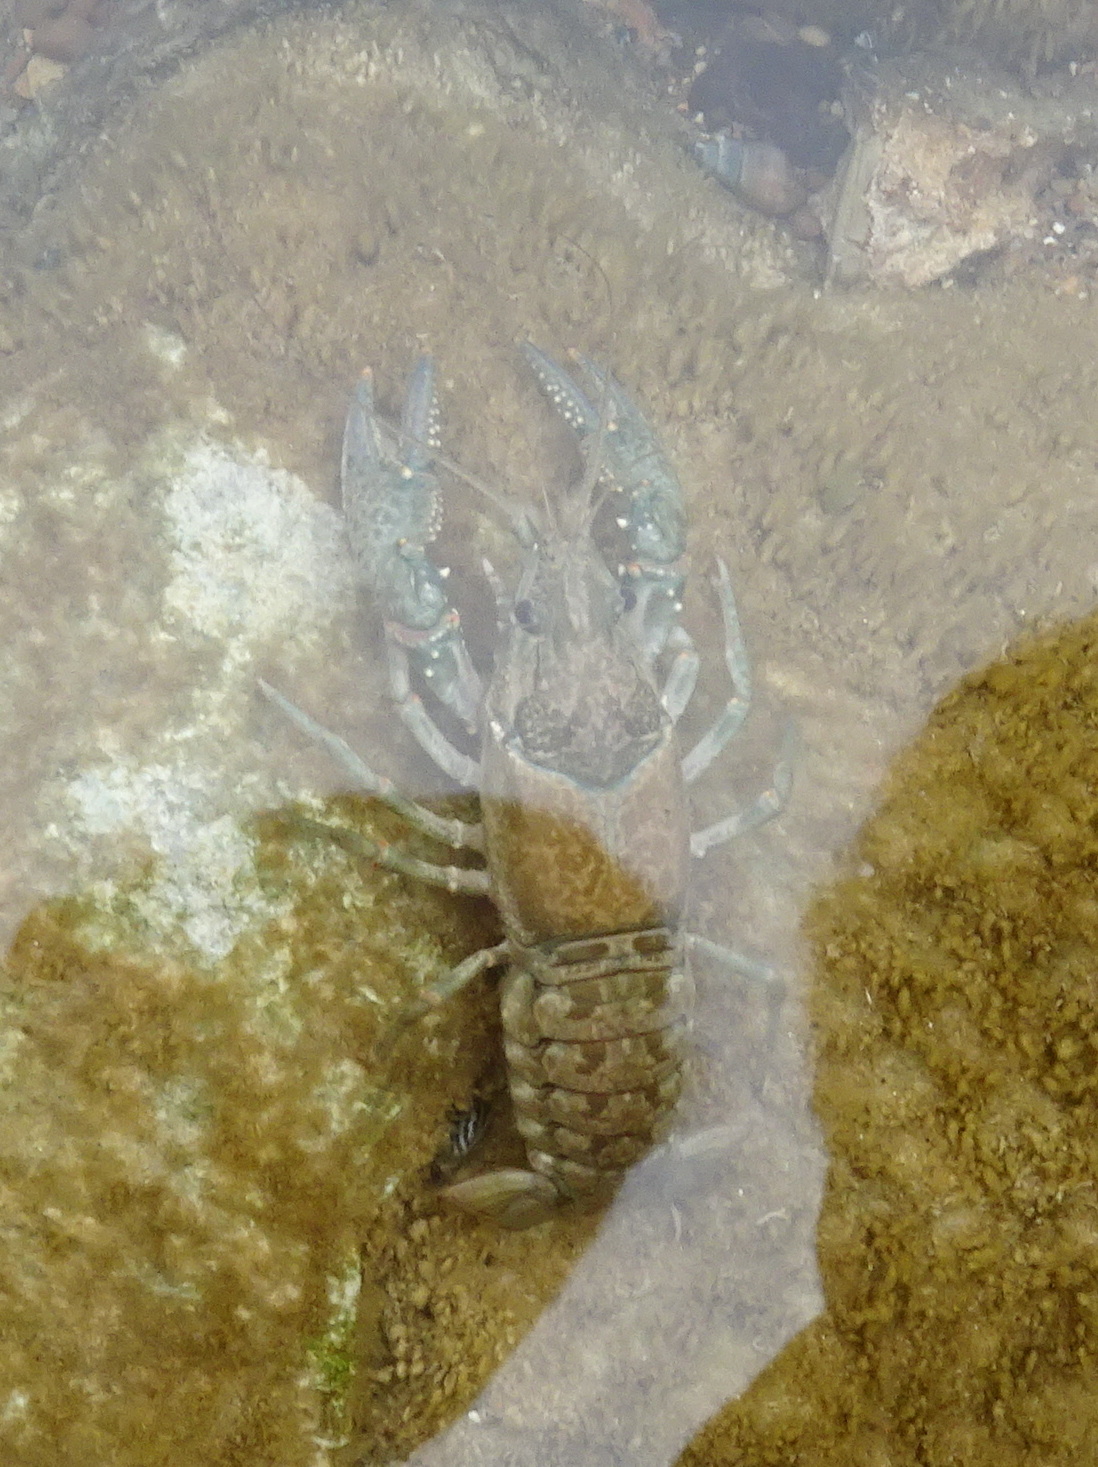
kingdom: Animalia
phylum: Arthropoda
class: Malacostraca
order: Decapoda
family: Cambaridae
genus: Faxonius
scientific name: Faxonius virilis
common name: Virile crayfish
